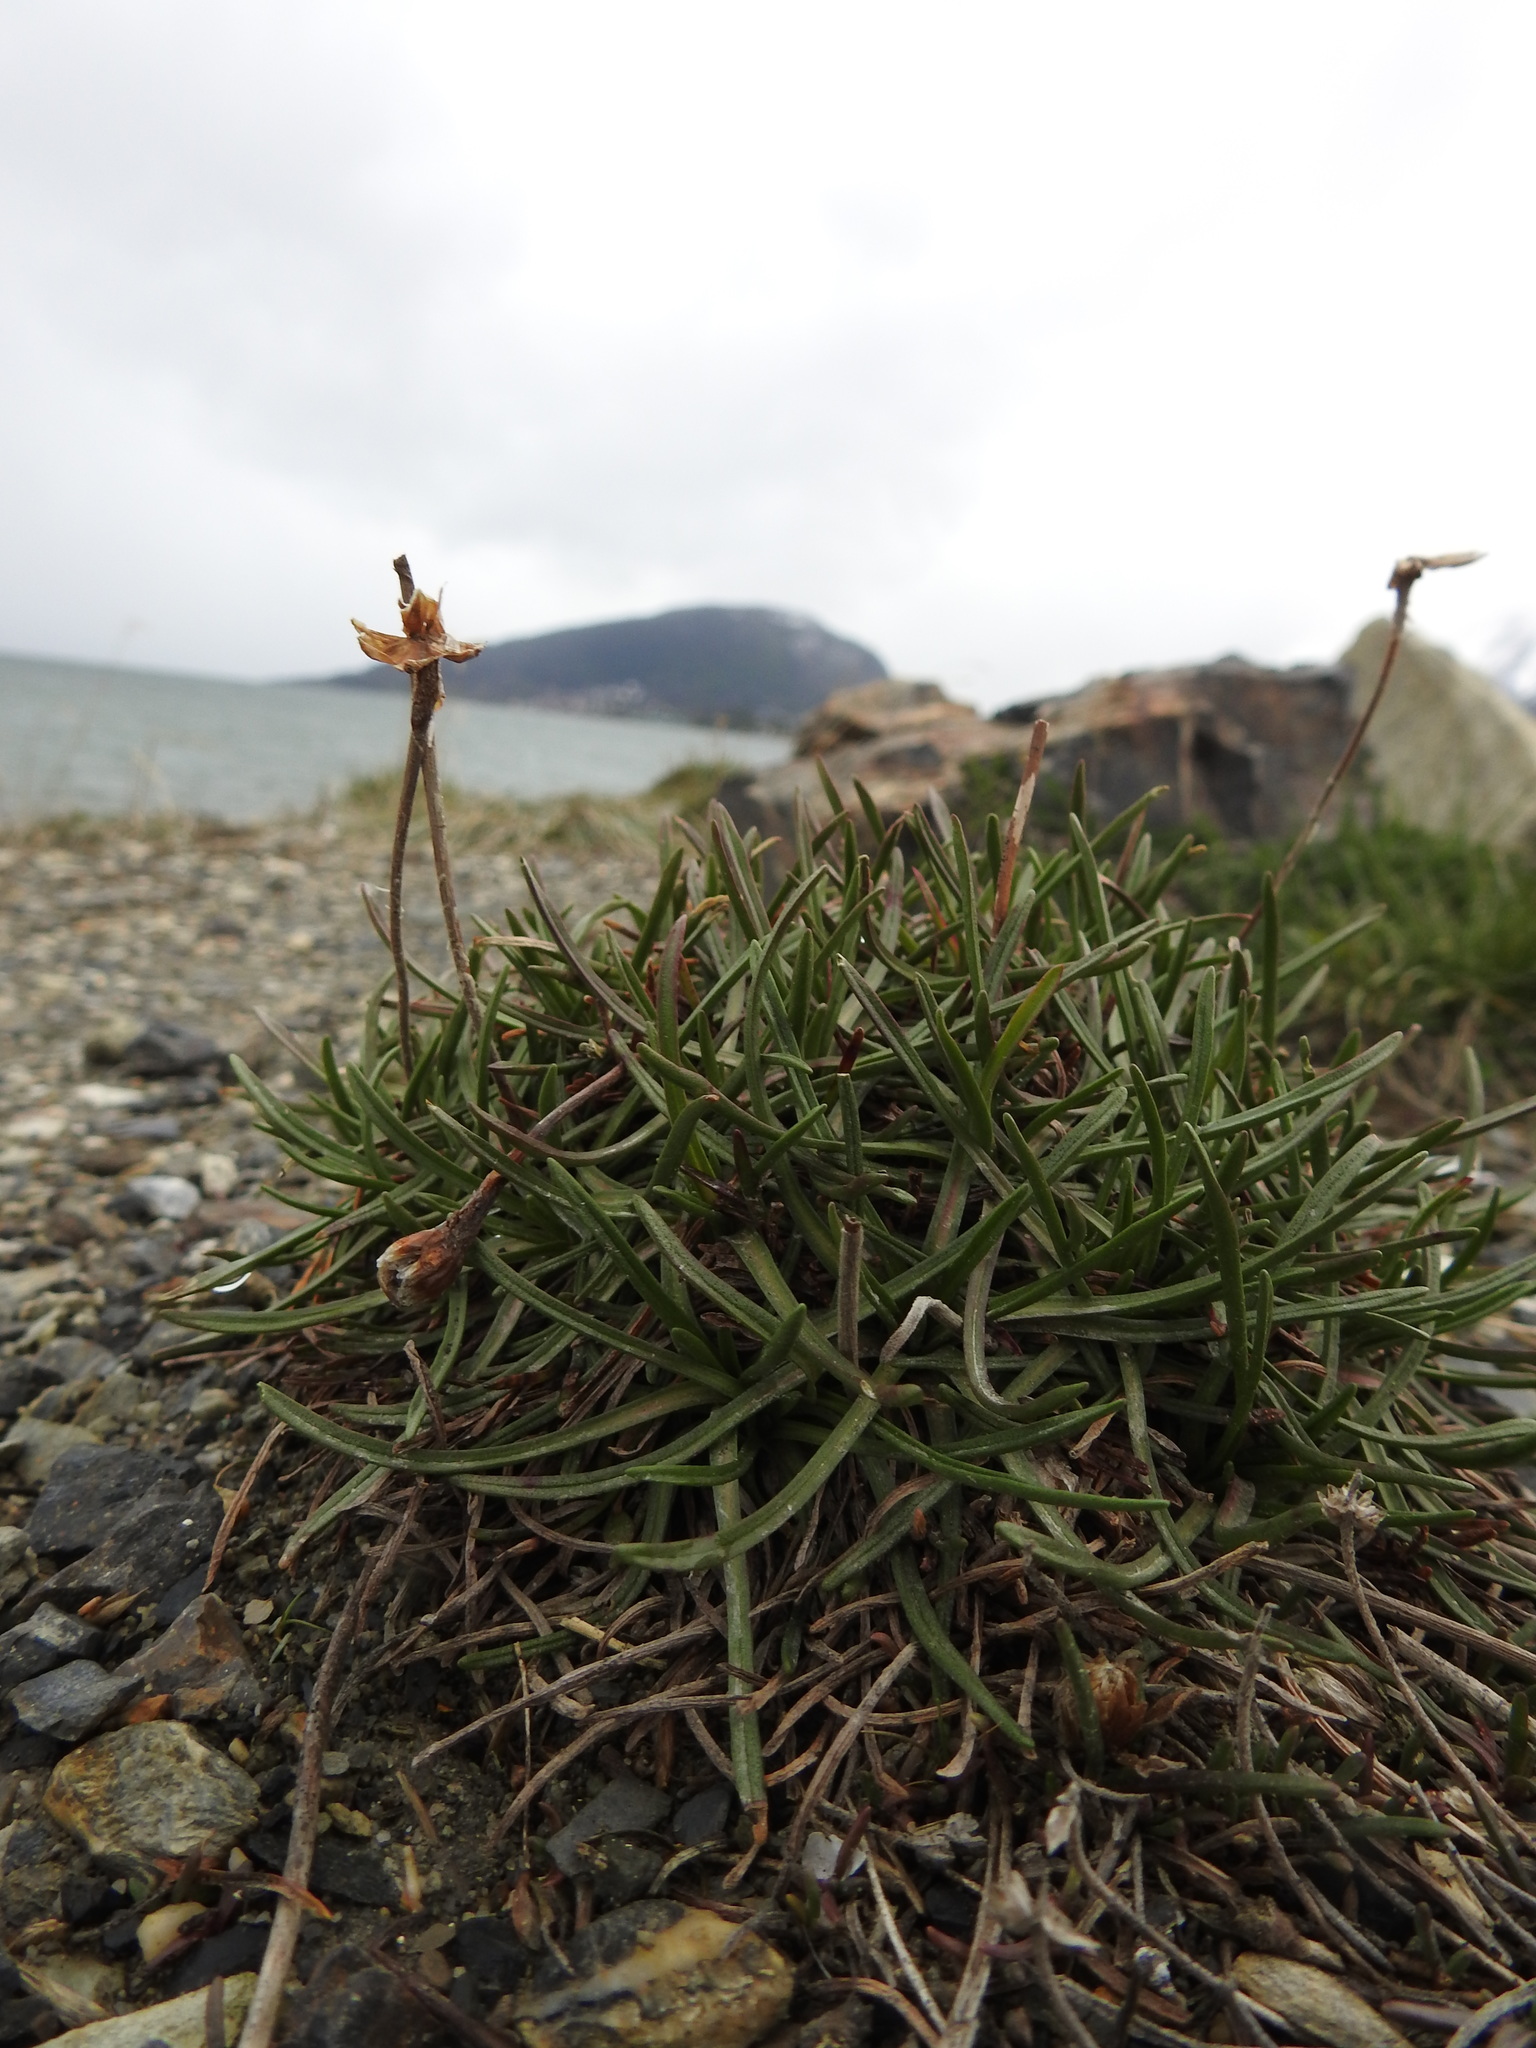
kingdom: Plantae
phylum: Tracheophyta
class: Magnoliopsida
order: Caryophyllales
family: Plumbaginaceae
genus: Armeria
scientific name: Armeria curvifolia
